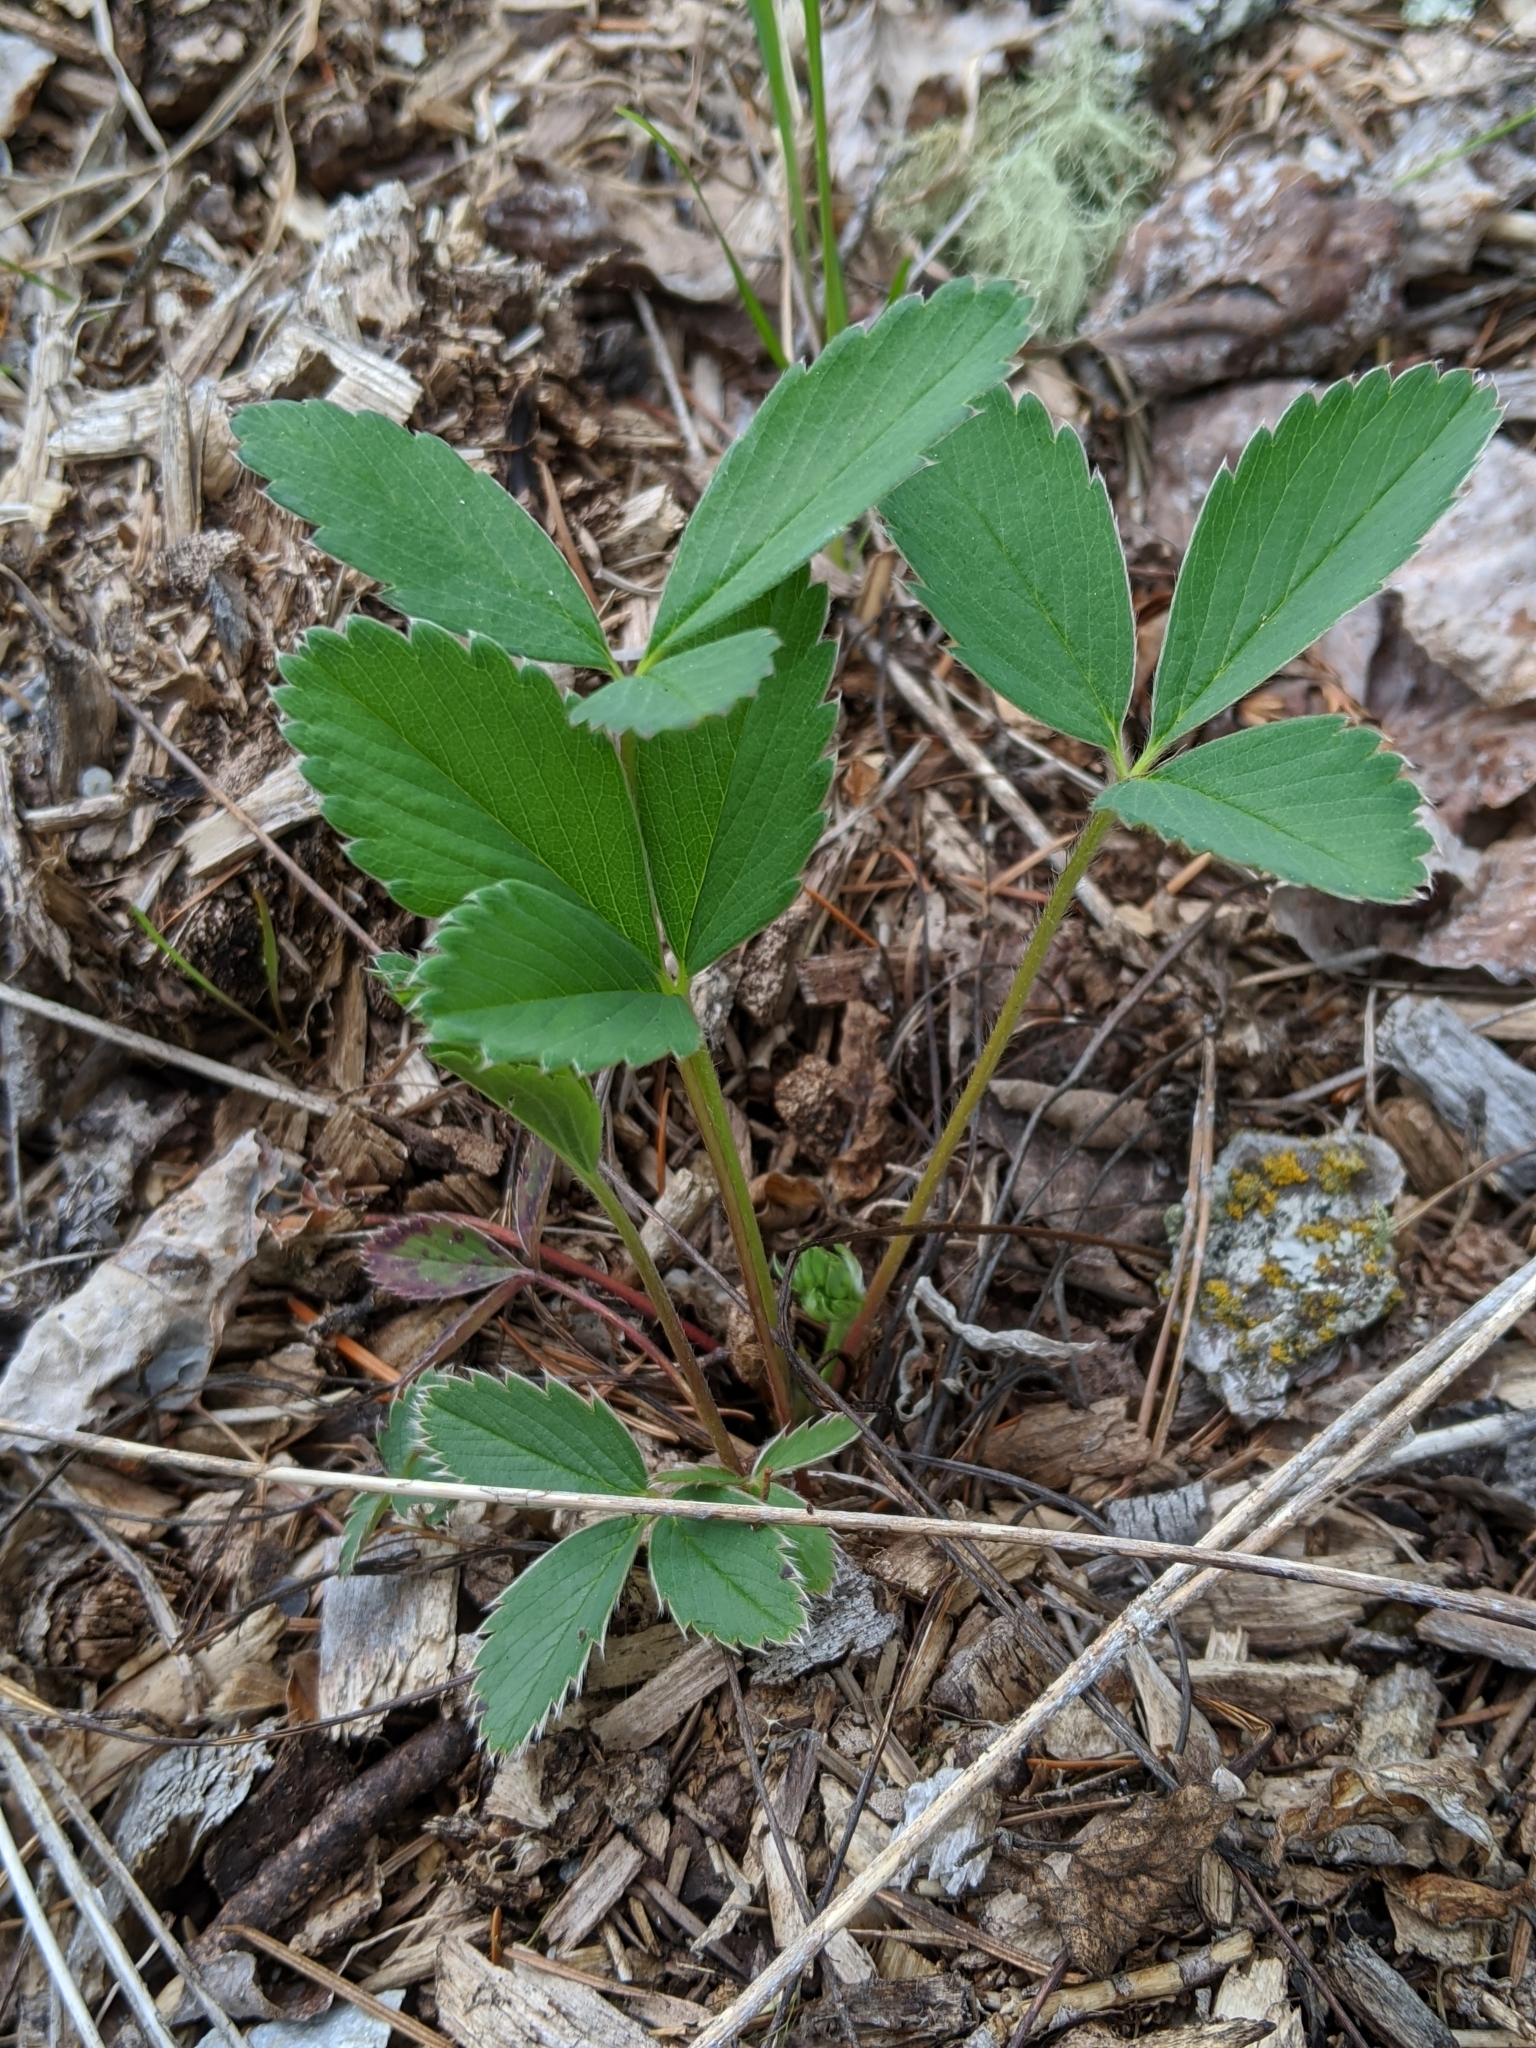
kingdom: Plantae
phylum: Tracheophyta
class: Magnoliopsida
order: Rosales
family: Rosaceae
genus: Fragaria
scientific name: Fragaria virginiana
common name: Thickleaved wild strawberry
